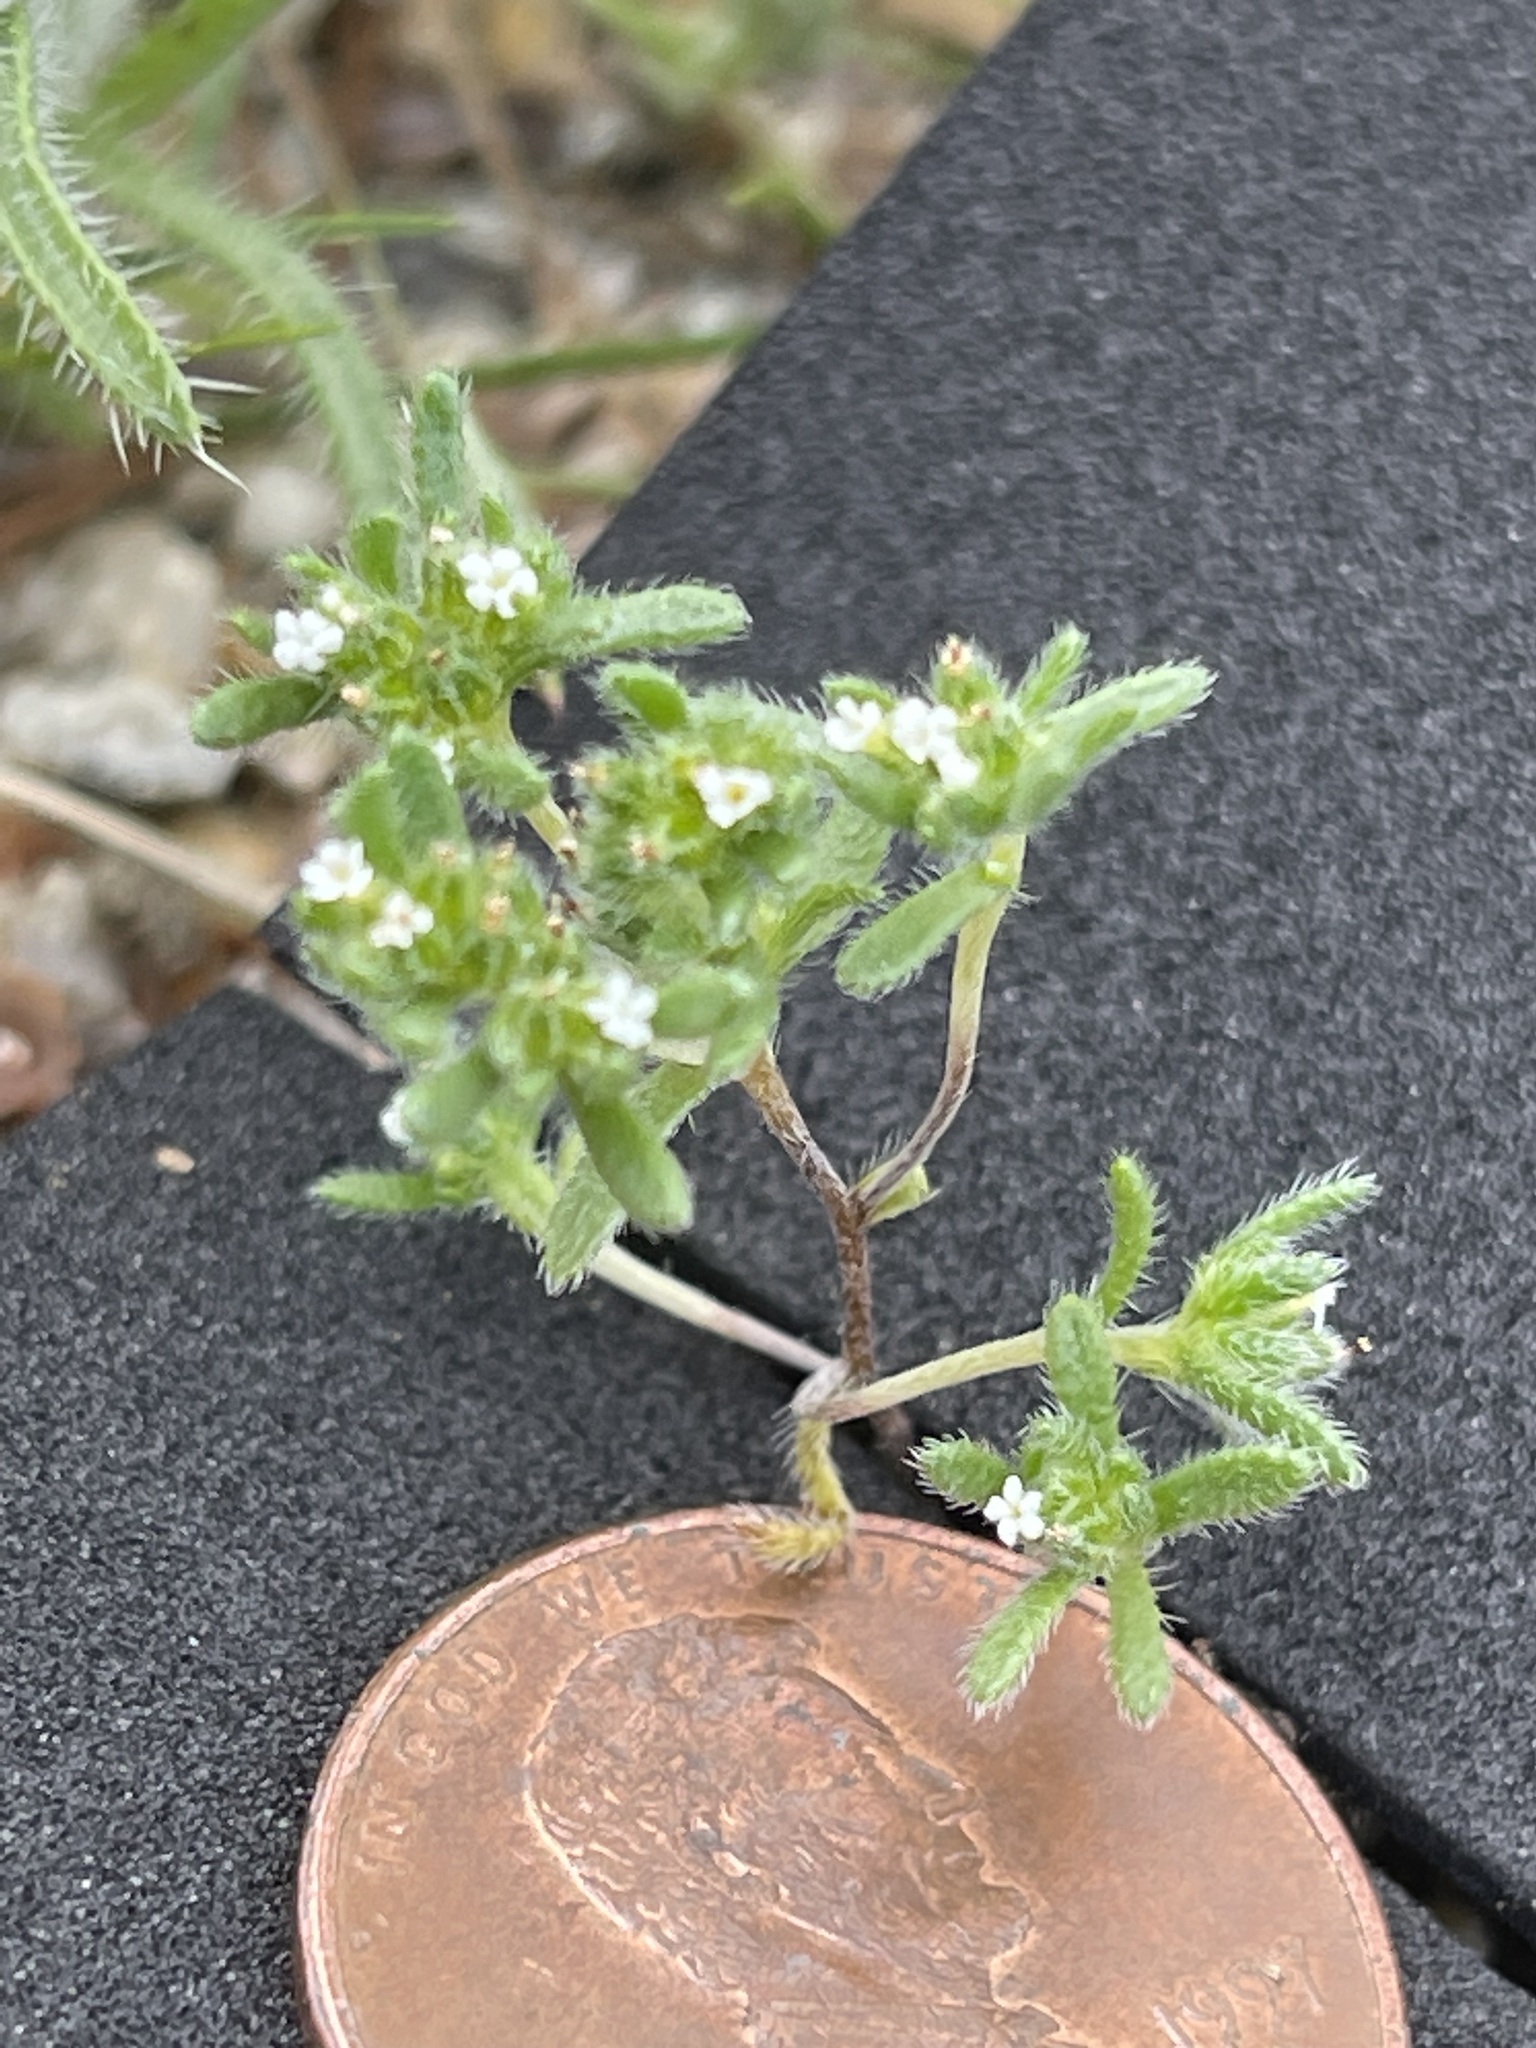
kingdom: Plantae
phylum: Tracheophyta
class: Magnoliopsida
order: Boraginales
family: Boraginaceae
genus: Eremocarya
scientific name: Eremocarya micrantha
